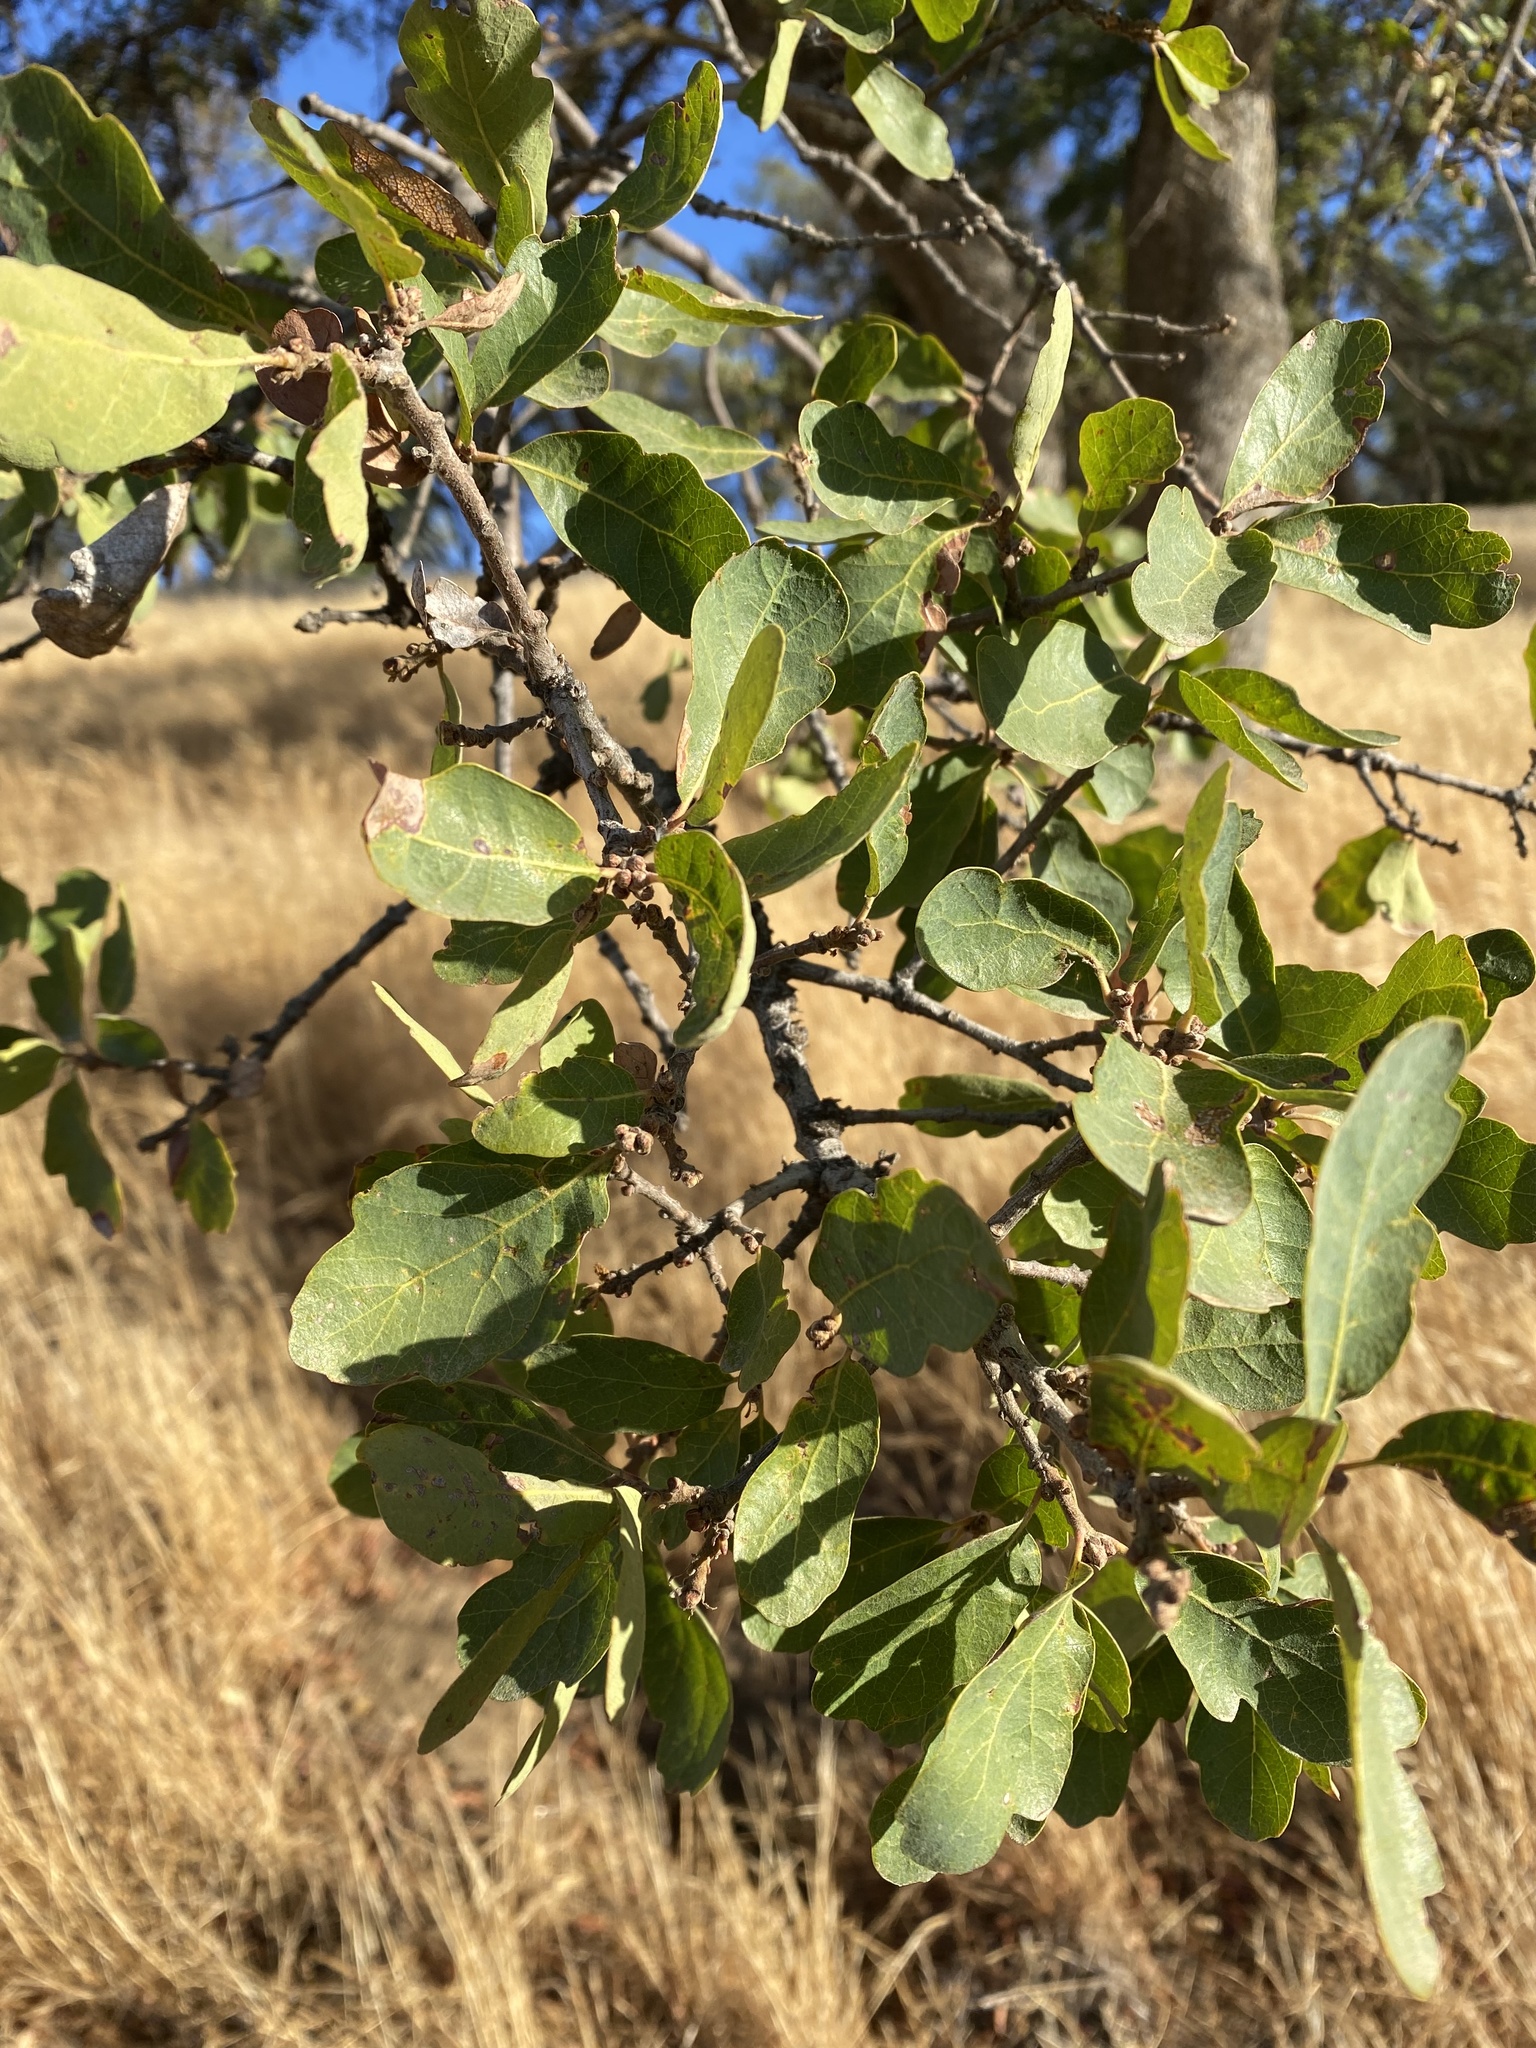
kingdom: Plantae
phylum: Tracheophyta
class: Magnoliopsida
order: Fagales
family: Fagaceae
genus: Quercus
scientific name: Quercus douglasii
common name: Blue oak
